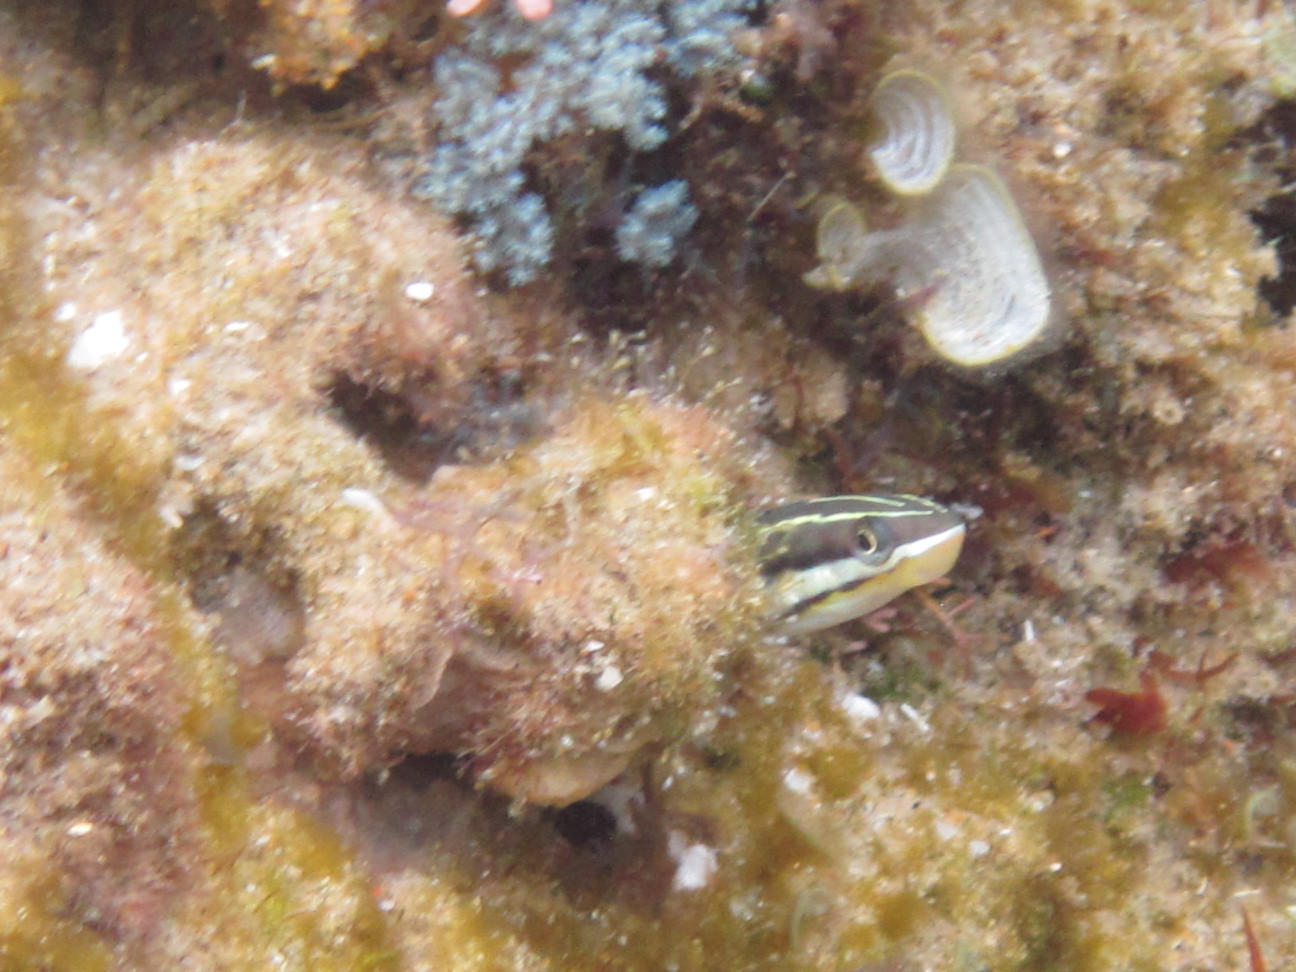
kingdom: Animalia
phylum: Chordata
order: Perciformes
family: Blenniidae
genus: Plagiotremus
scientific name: Plagiotremus tapeinosoma
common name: Hit and run blenny
